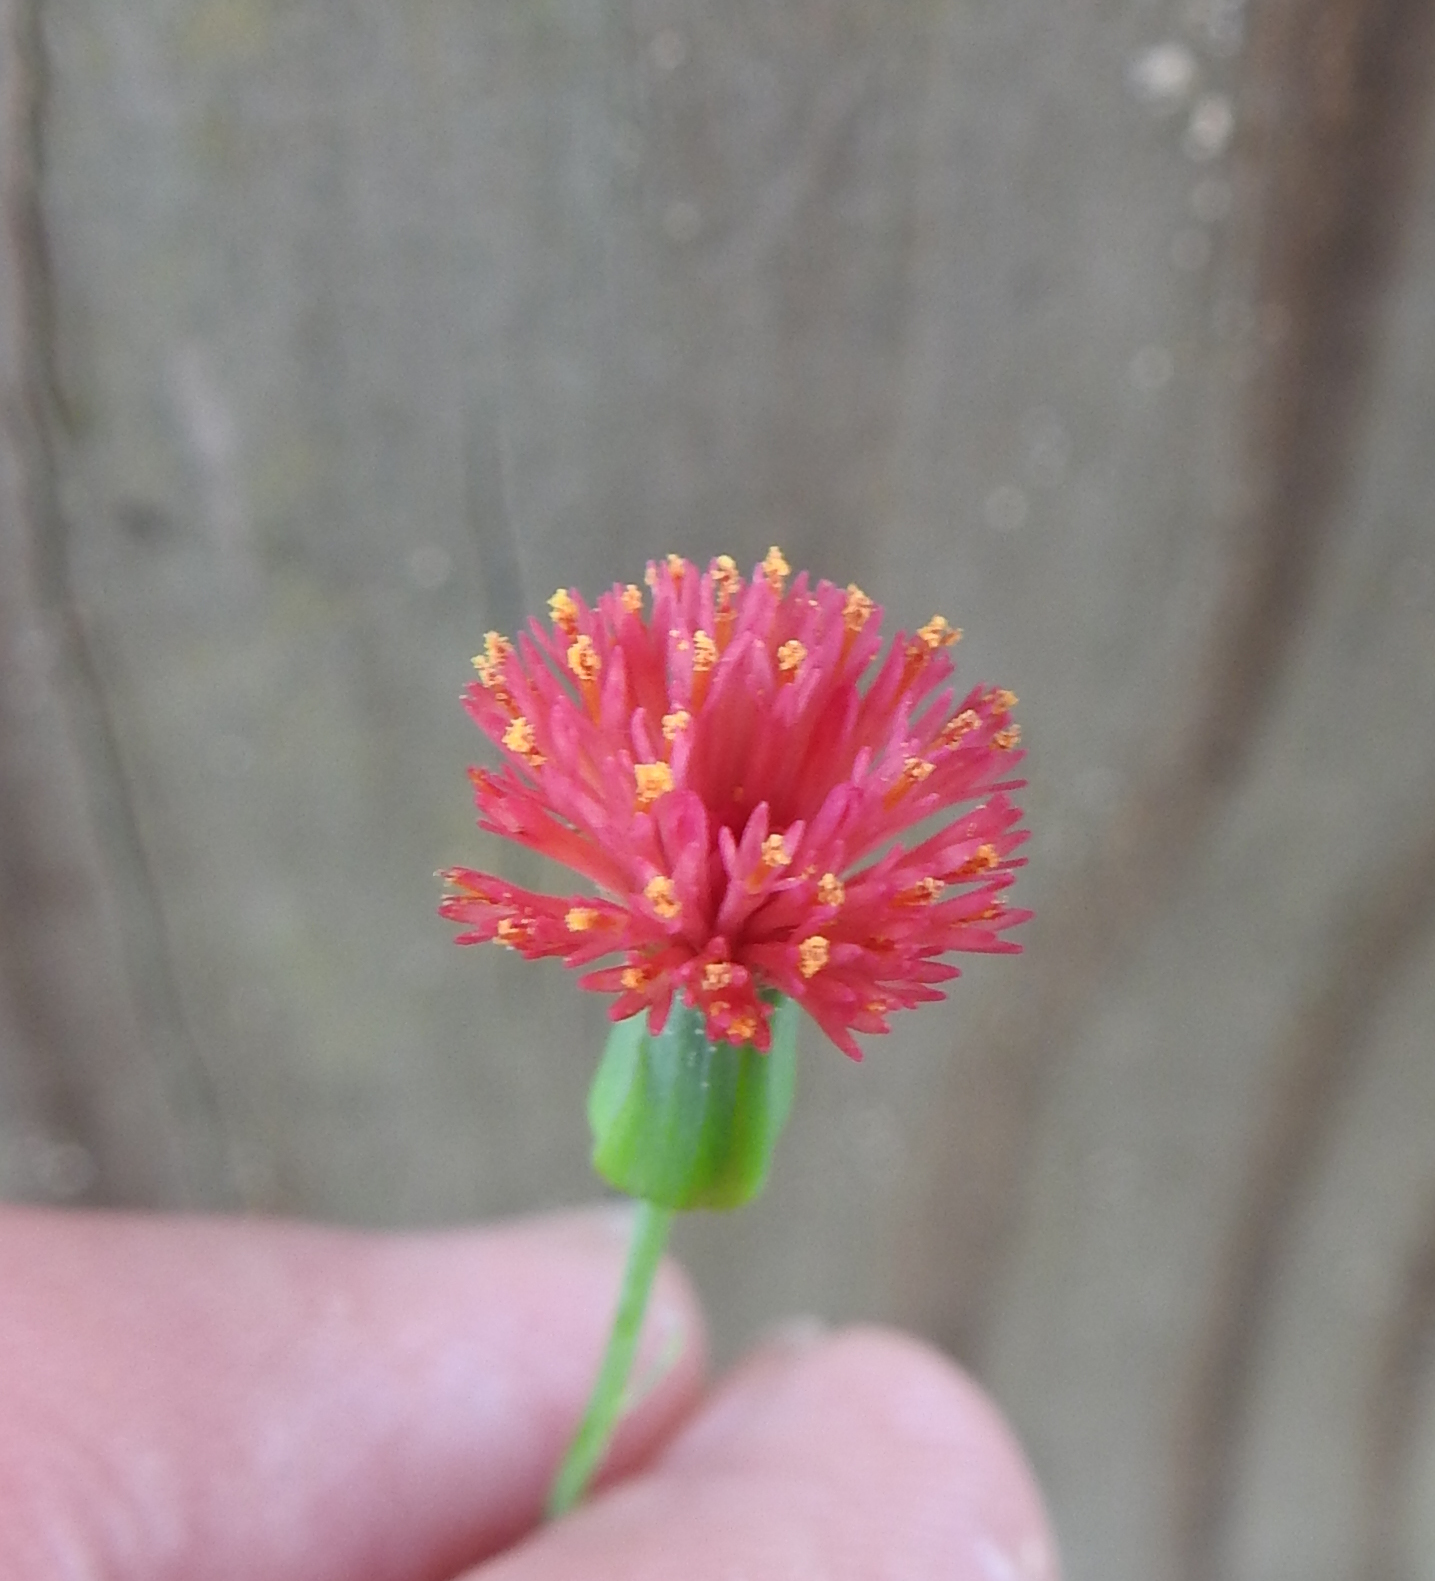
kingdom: Plantae
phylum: Tracheophyta
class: Magnoliopsida
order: Asterales
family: Asteraceae
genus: Emilia
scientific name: Emilia fosbergii
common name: Florida tasselflower
